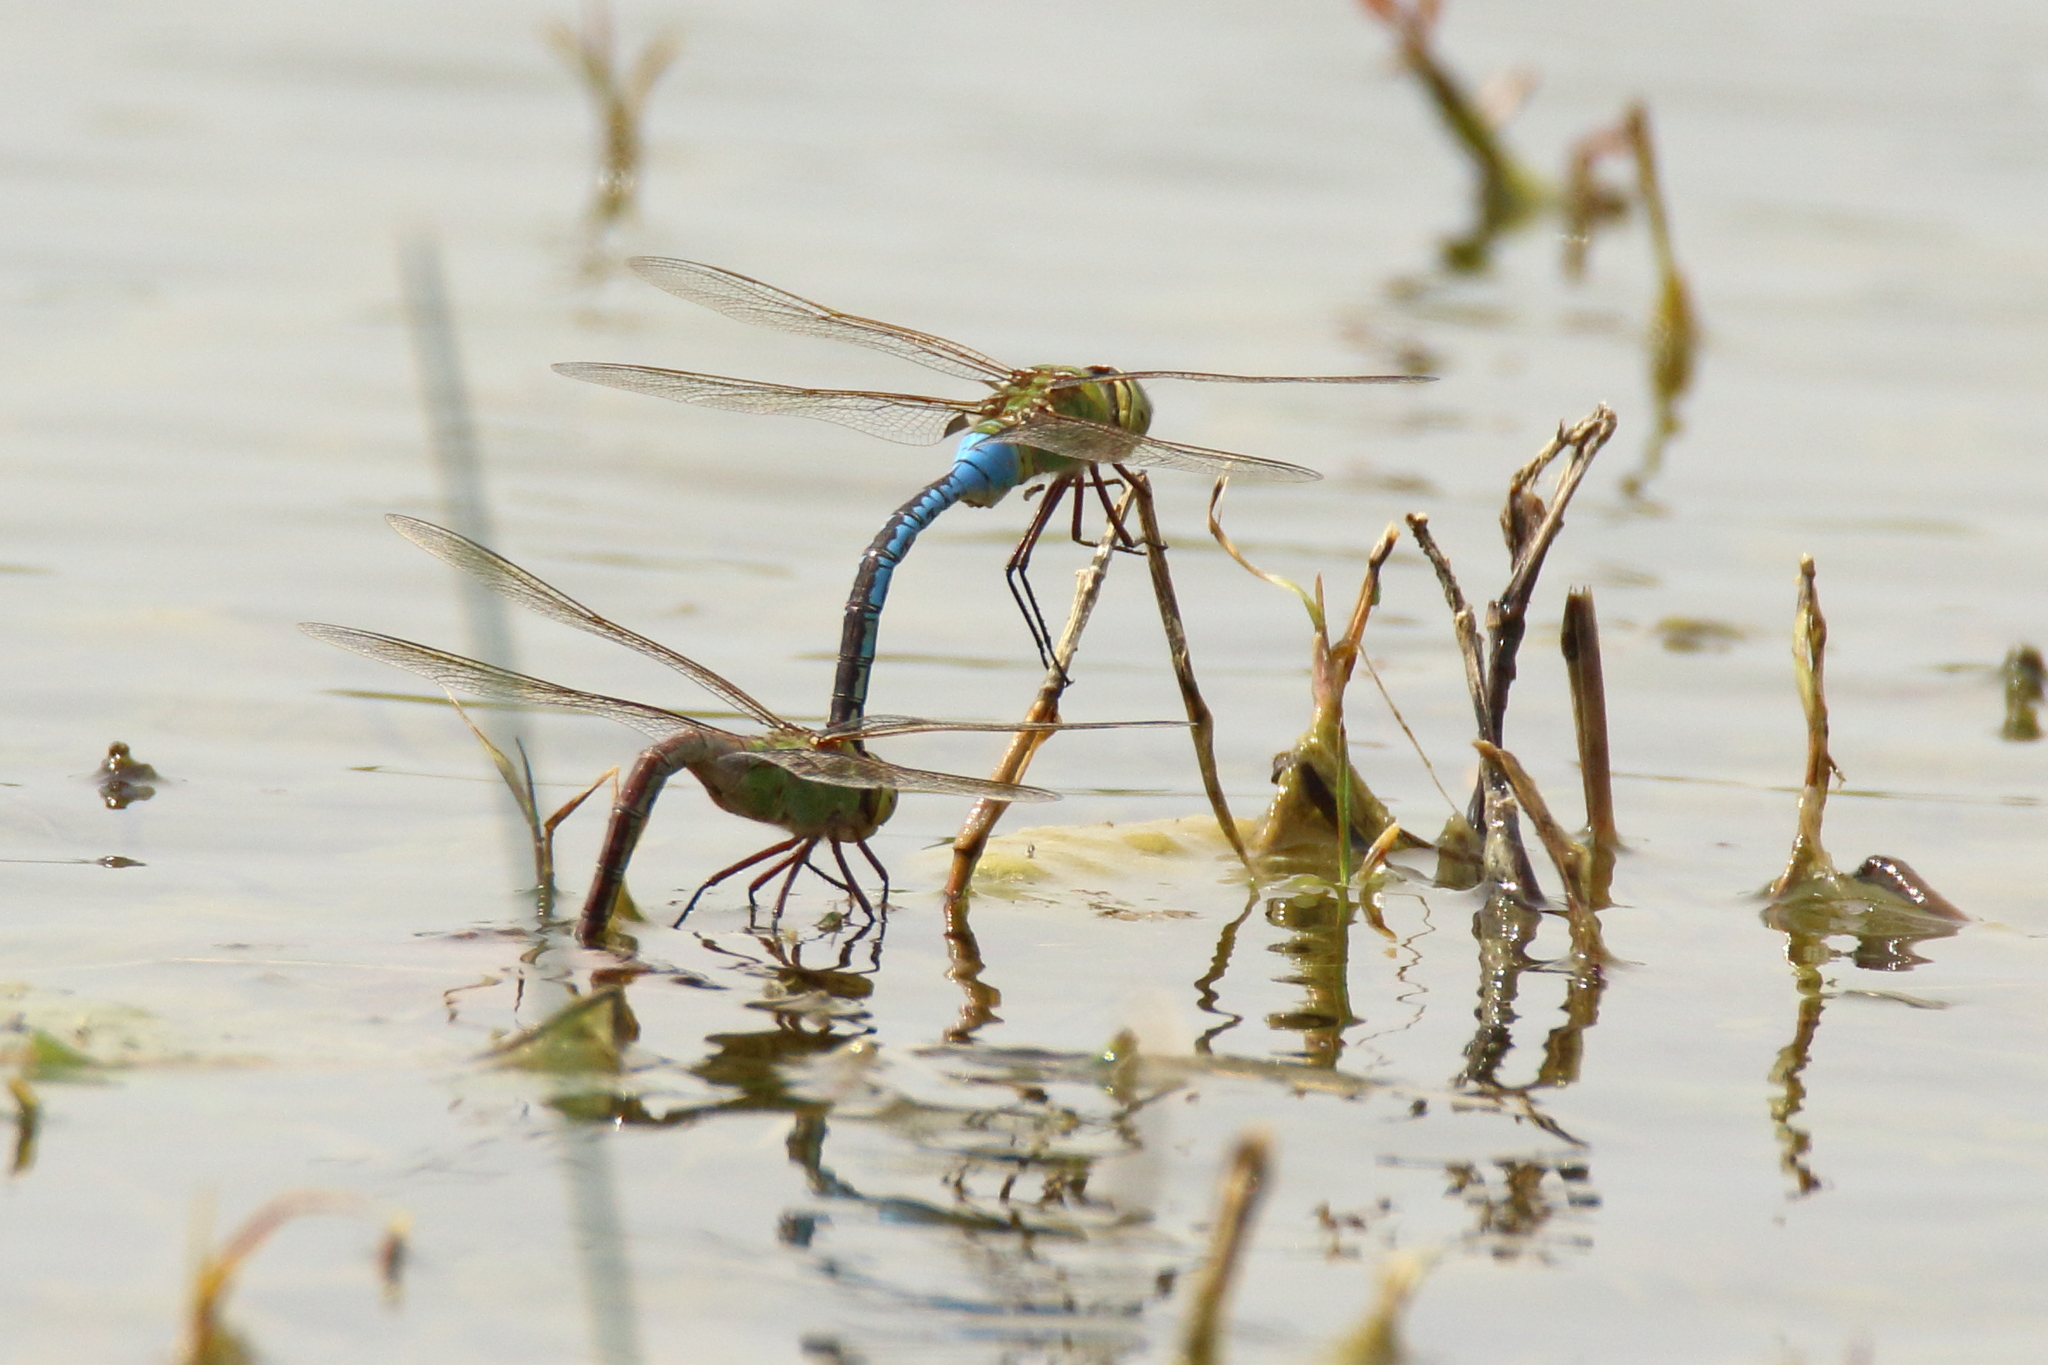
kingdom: Animalia
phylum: Arthropoda
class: Insecta
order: Odonata
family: Aeshnidae
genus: Anax
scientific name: Anax junius
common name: Common green darner
